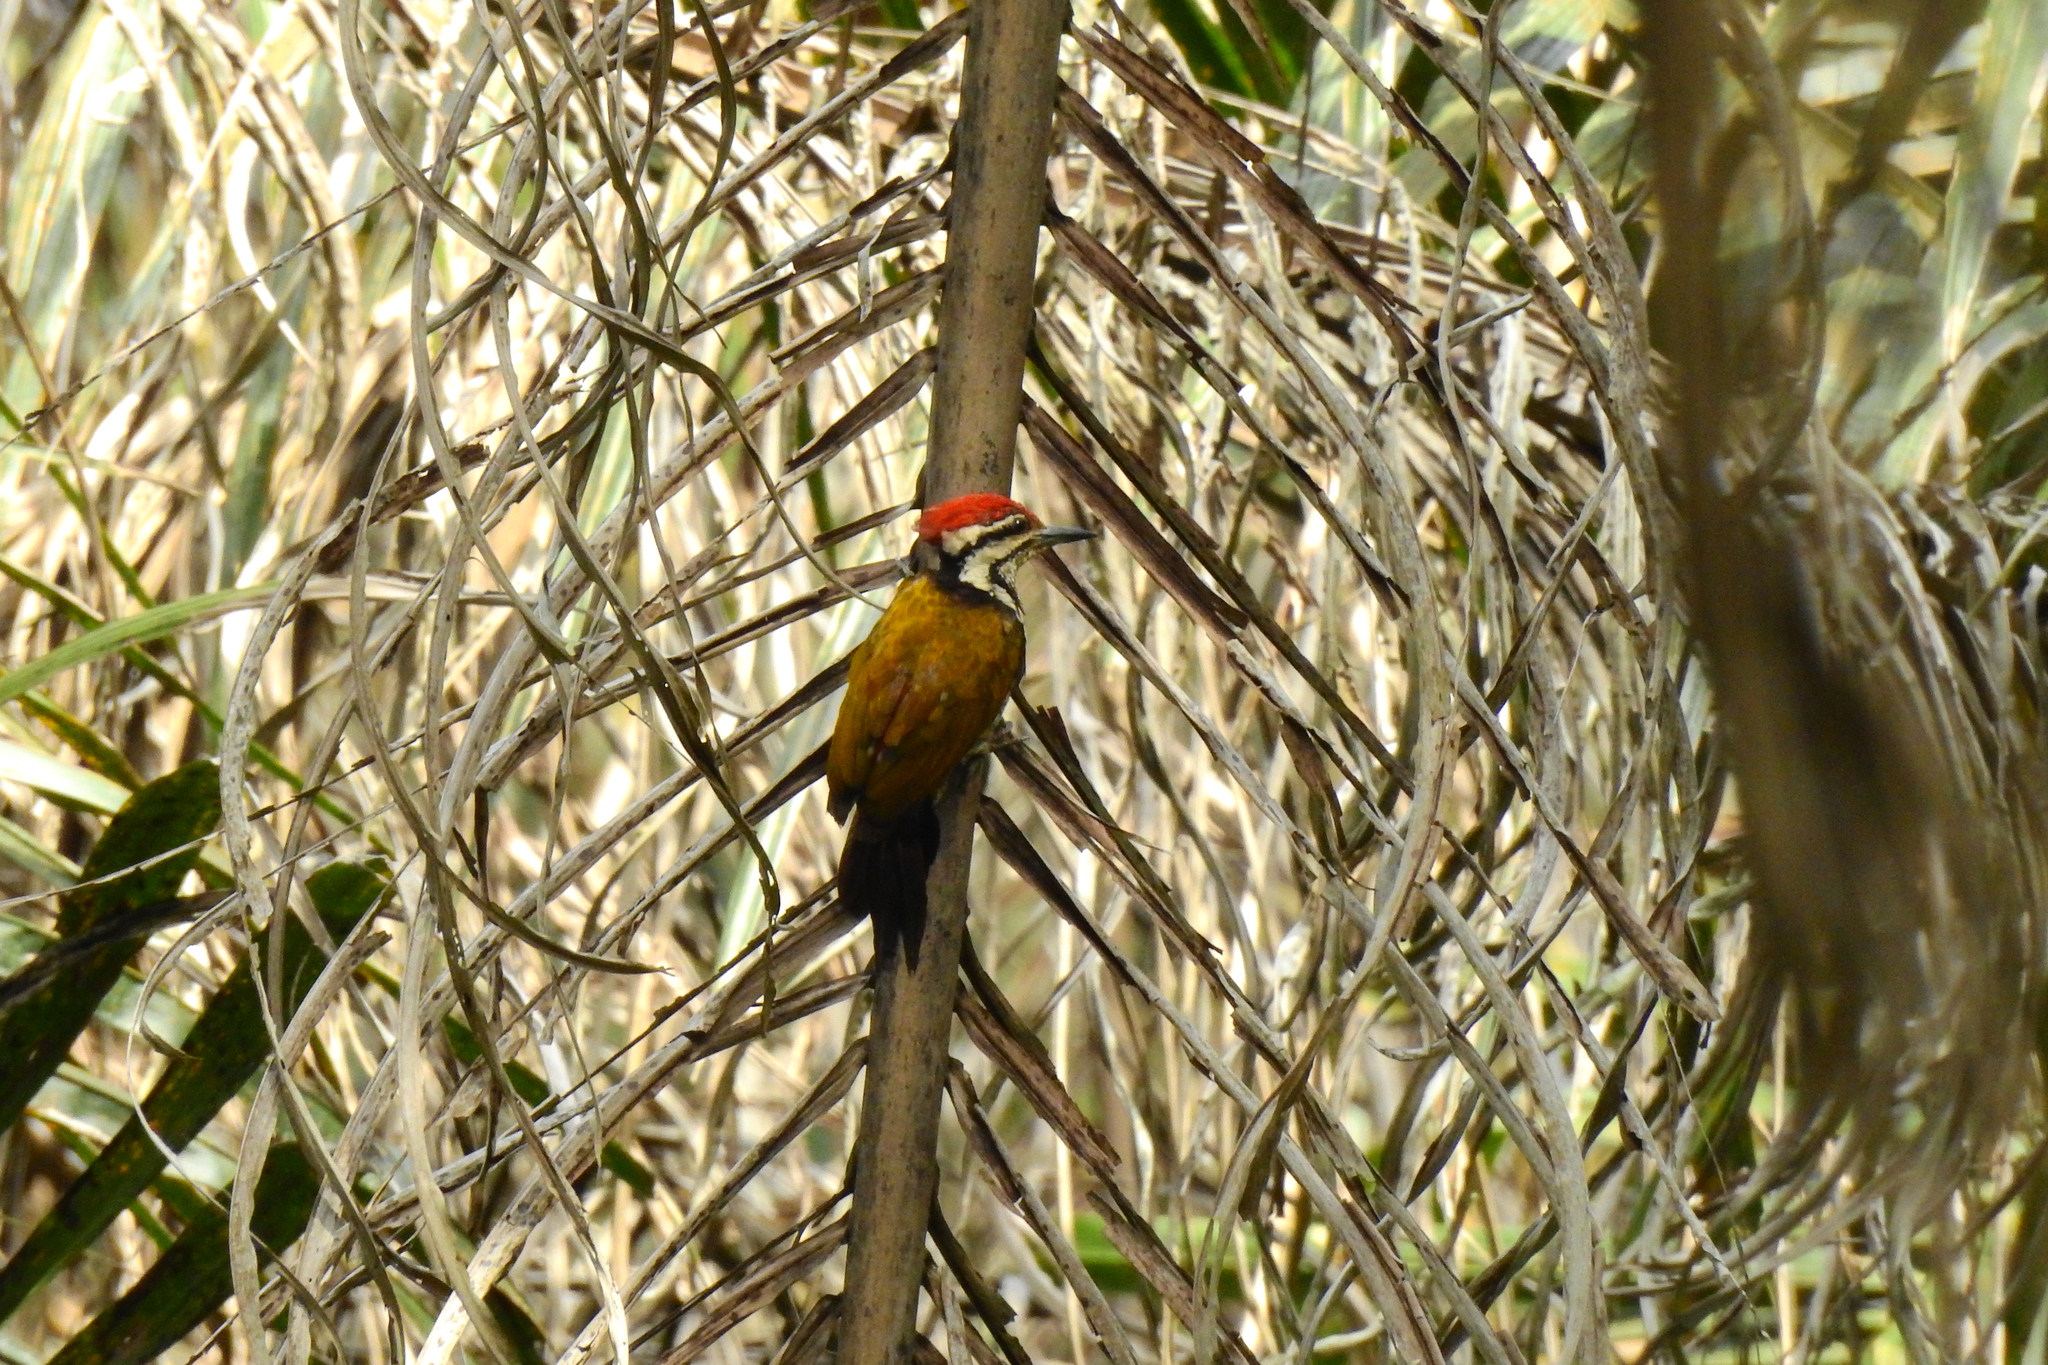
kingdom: Animalia
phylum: Chordata
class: Aves
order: Piciformes
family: Picidae
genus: Dinopium
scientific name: Dinopium javanense
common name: Common flameback
